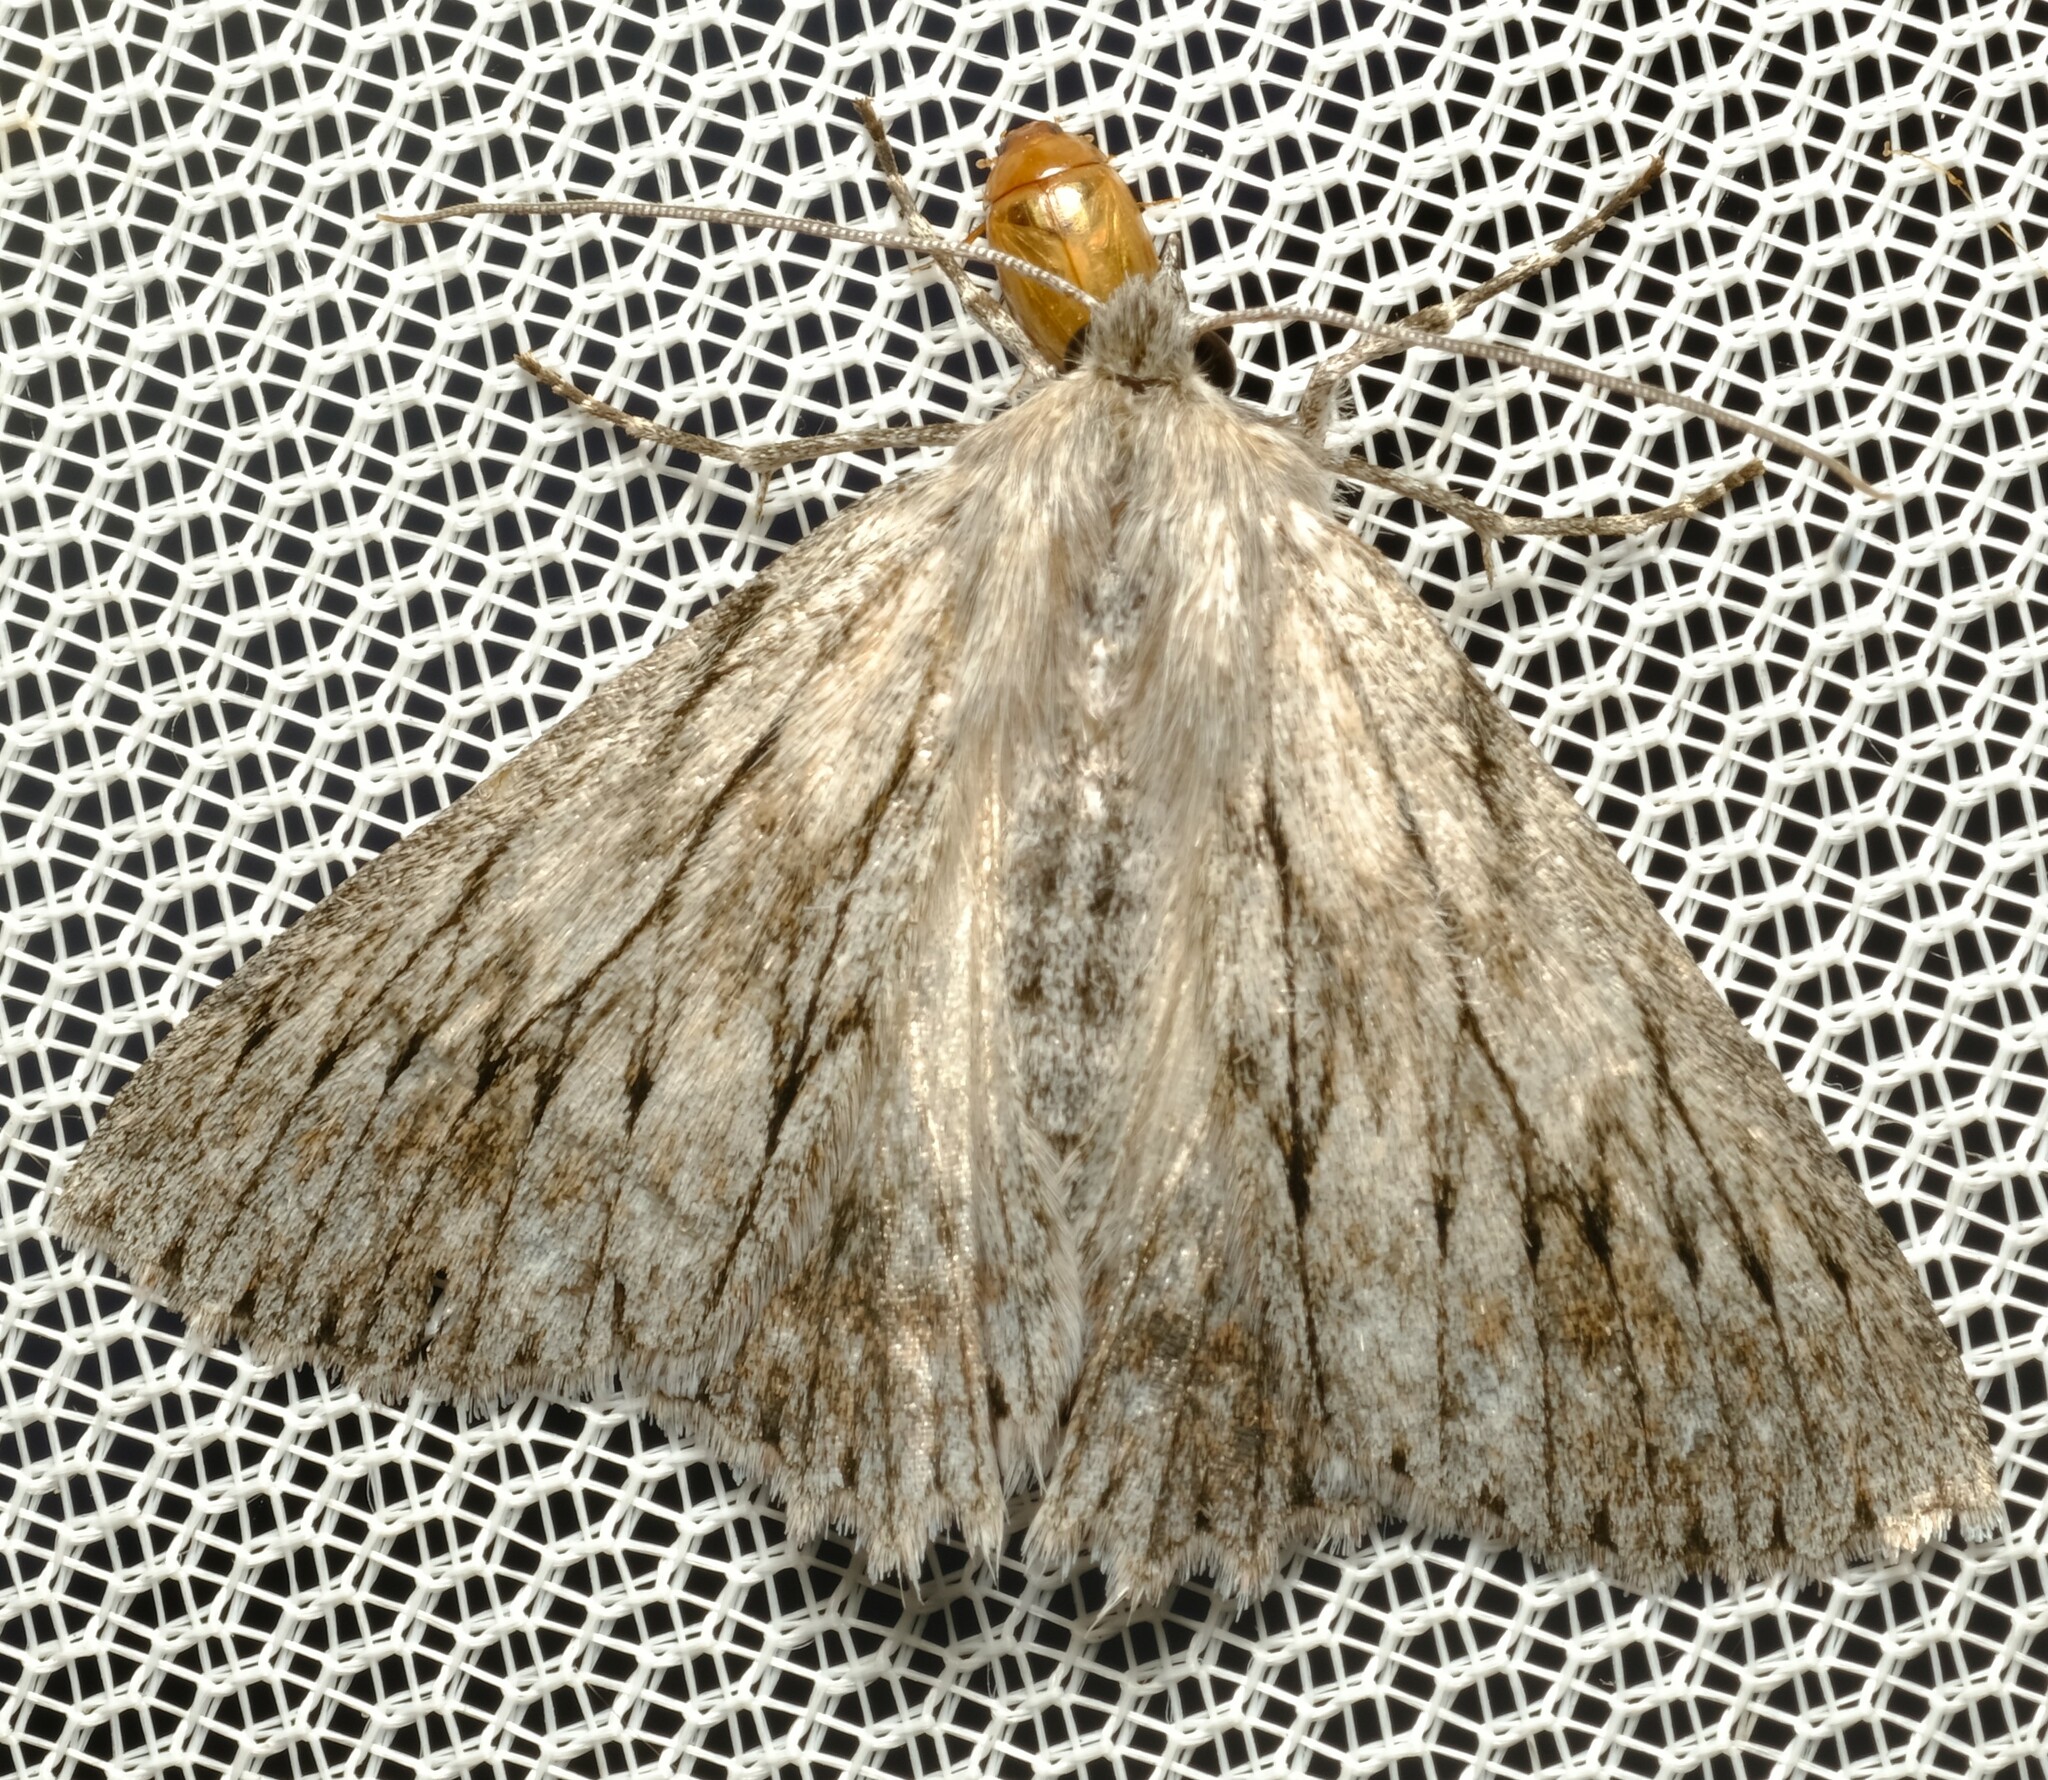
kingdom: Animalia
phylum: Arthropoda
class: Insecta
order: Lepidoptera
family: Geometridae
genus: Cyneoterpna
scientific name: Cyneoterpna wilsoni
